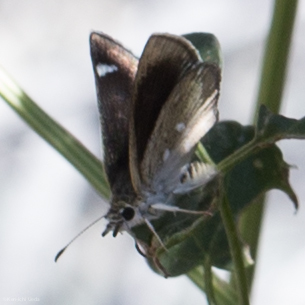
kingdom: Animalia
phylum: Arthropoda
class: Insecta
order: Lepidoptera
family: Hesperiidae
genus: Pholisora
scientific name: Pholisora libya
